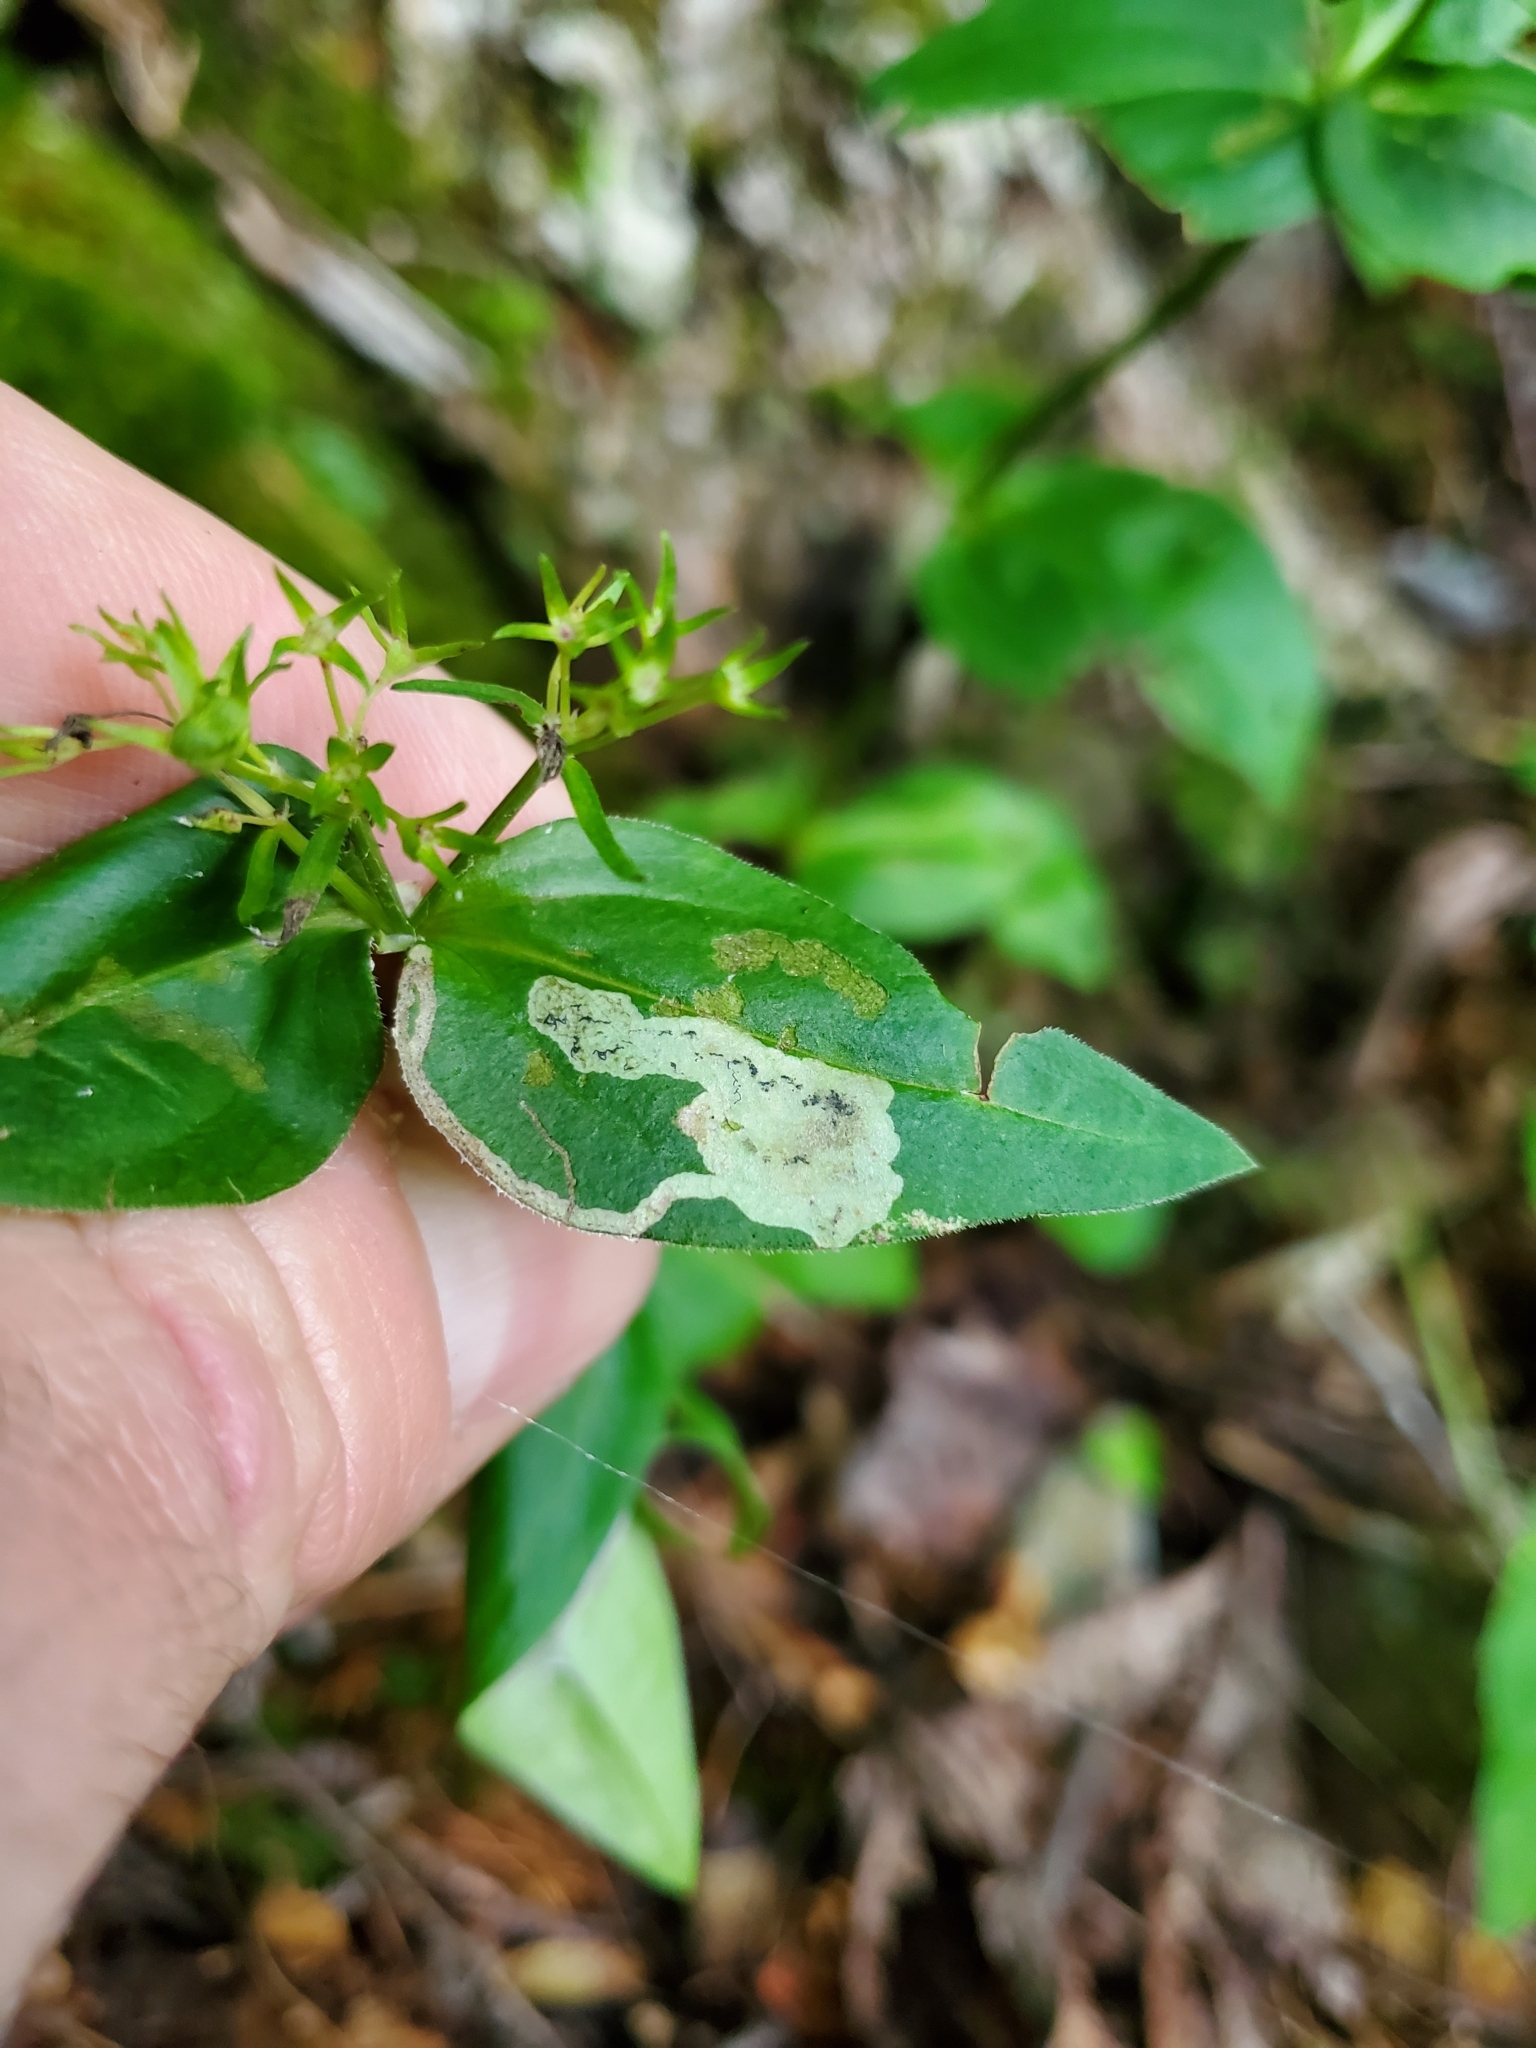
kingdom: Plantae
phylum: Tracheophyta
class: Magnoliopsida
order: Gentianales
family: Rubiaceae
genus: Houstonia
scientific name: Houstonia purpurea
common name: Summer bluet
